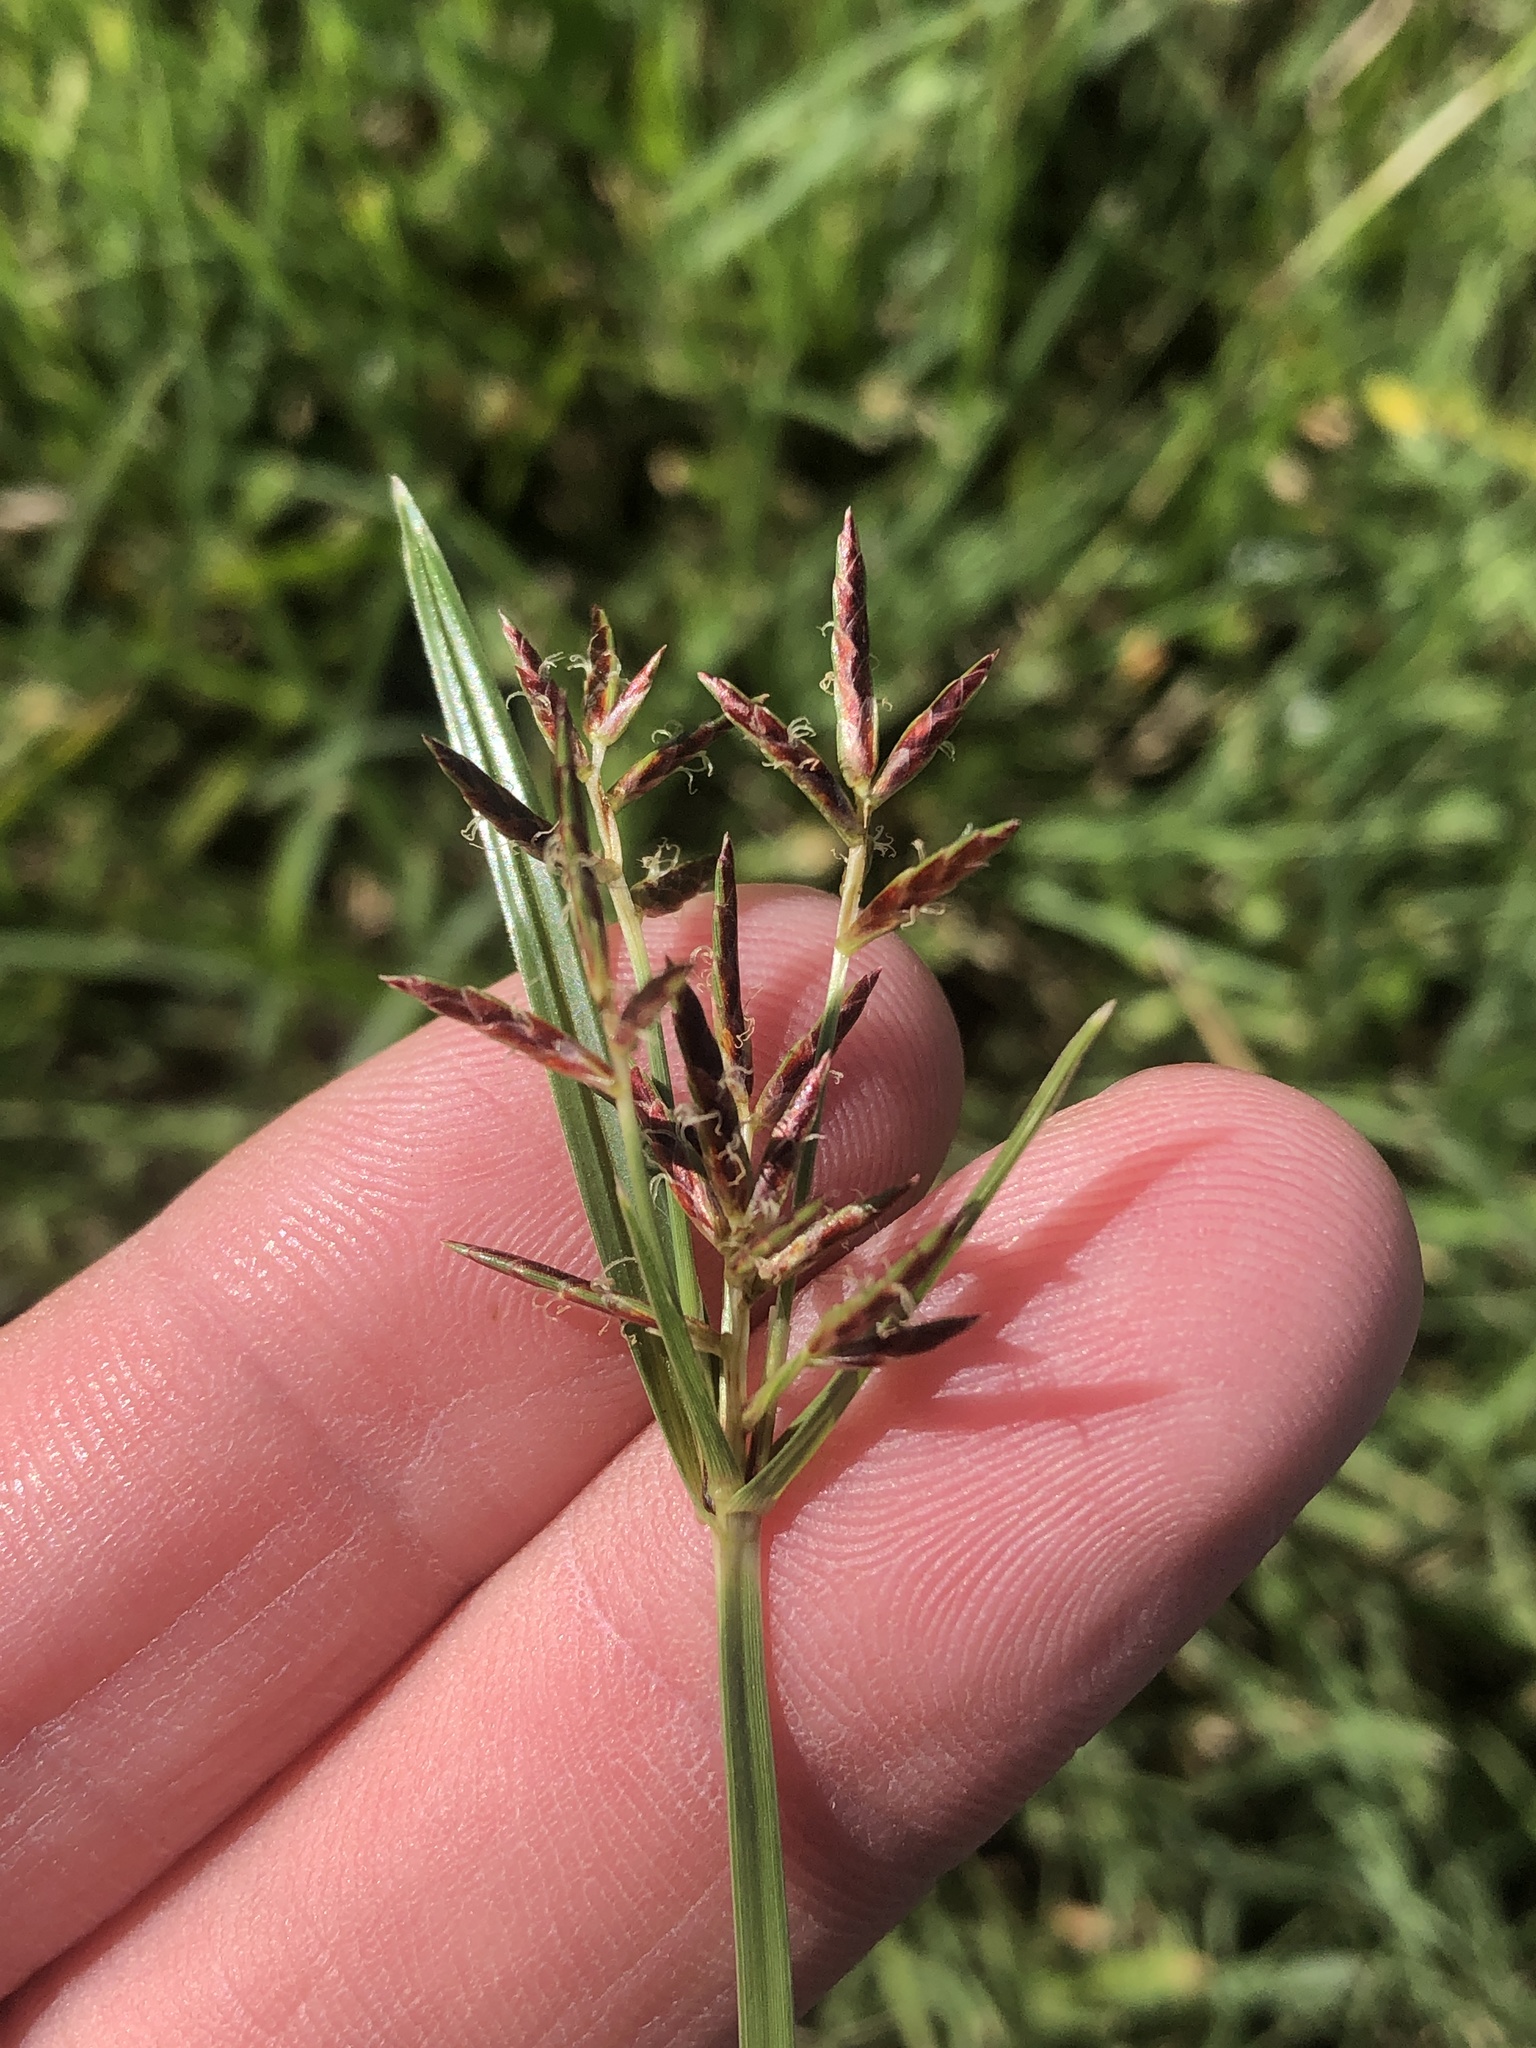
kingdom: Plantae
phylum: Tracheophyta
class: Liliopsida
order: Poales
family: Cyperaceae
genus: Cyperus
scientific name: Cyperus rotundus
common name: Nutgrass
